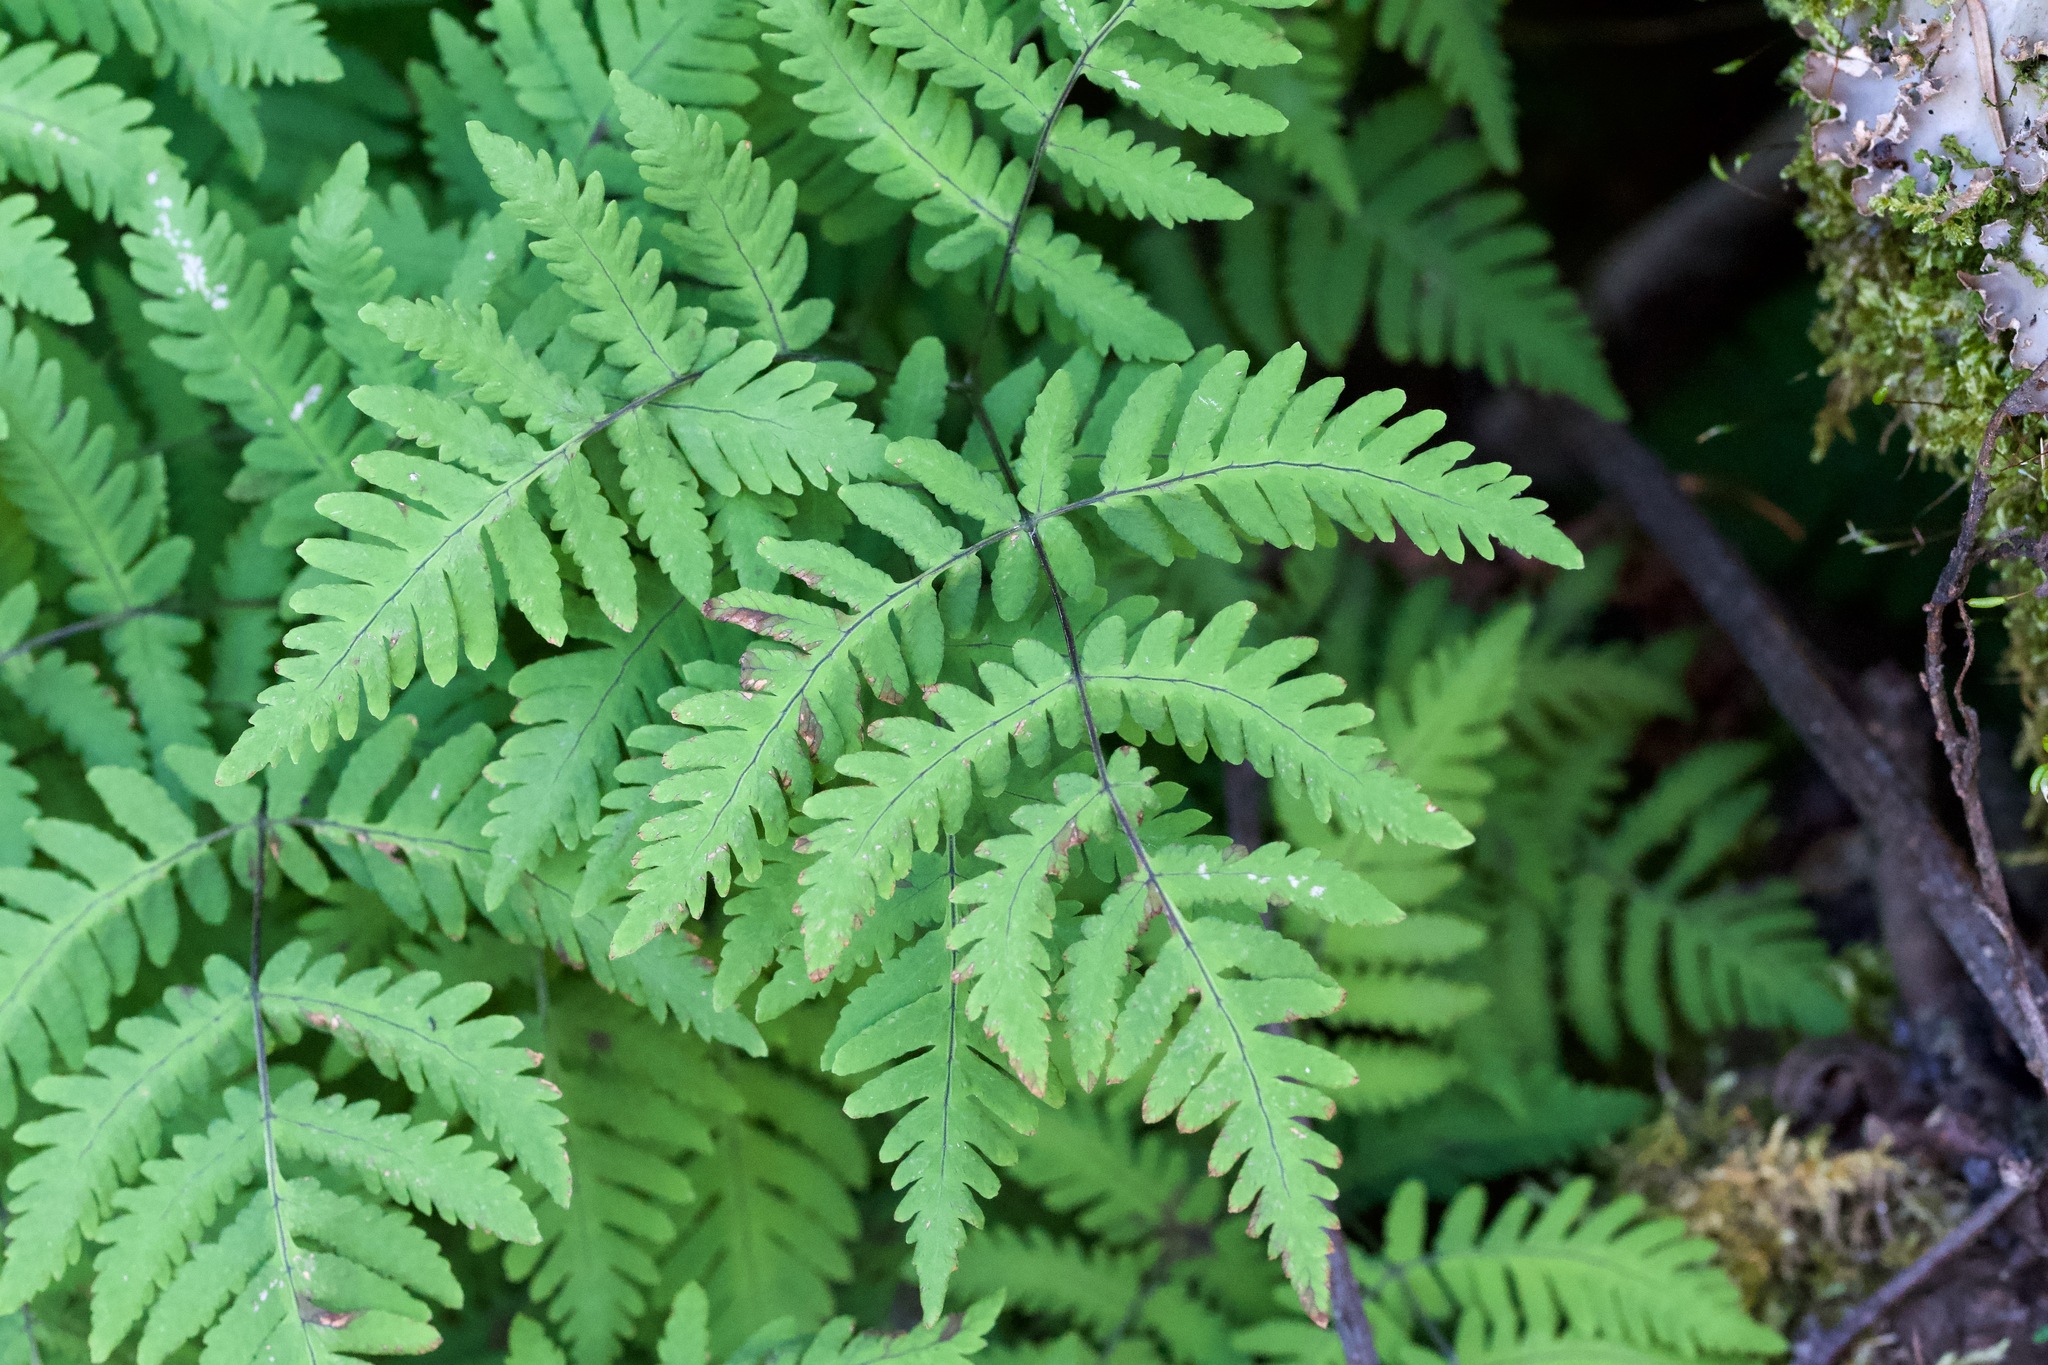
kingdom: Plantae
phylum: Tracheophyta
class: Polypodiopsida
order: Polypodiales
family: Cystopteridaceae
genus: Gymnocarpium
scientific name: Gymnocarpium dryopteris
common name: Oak fern
